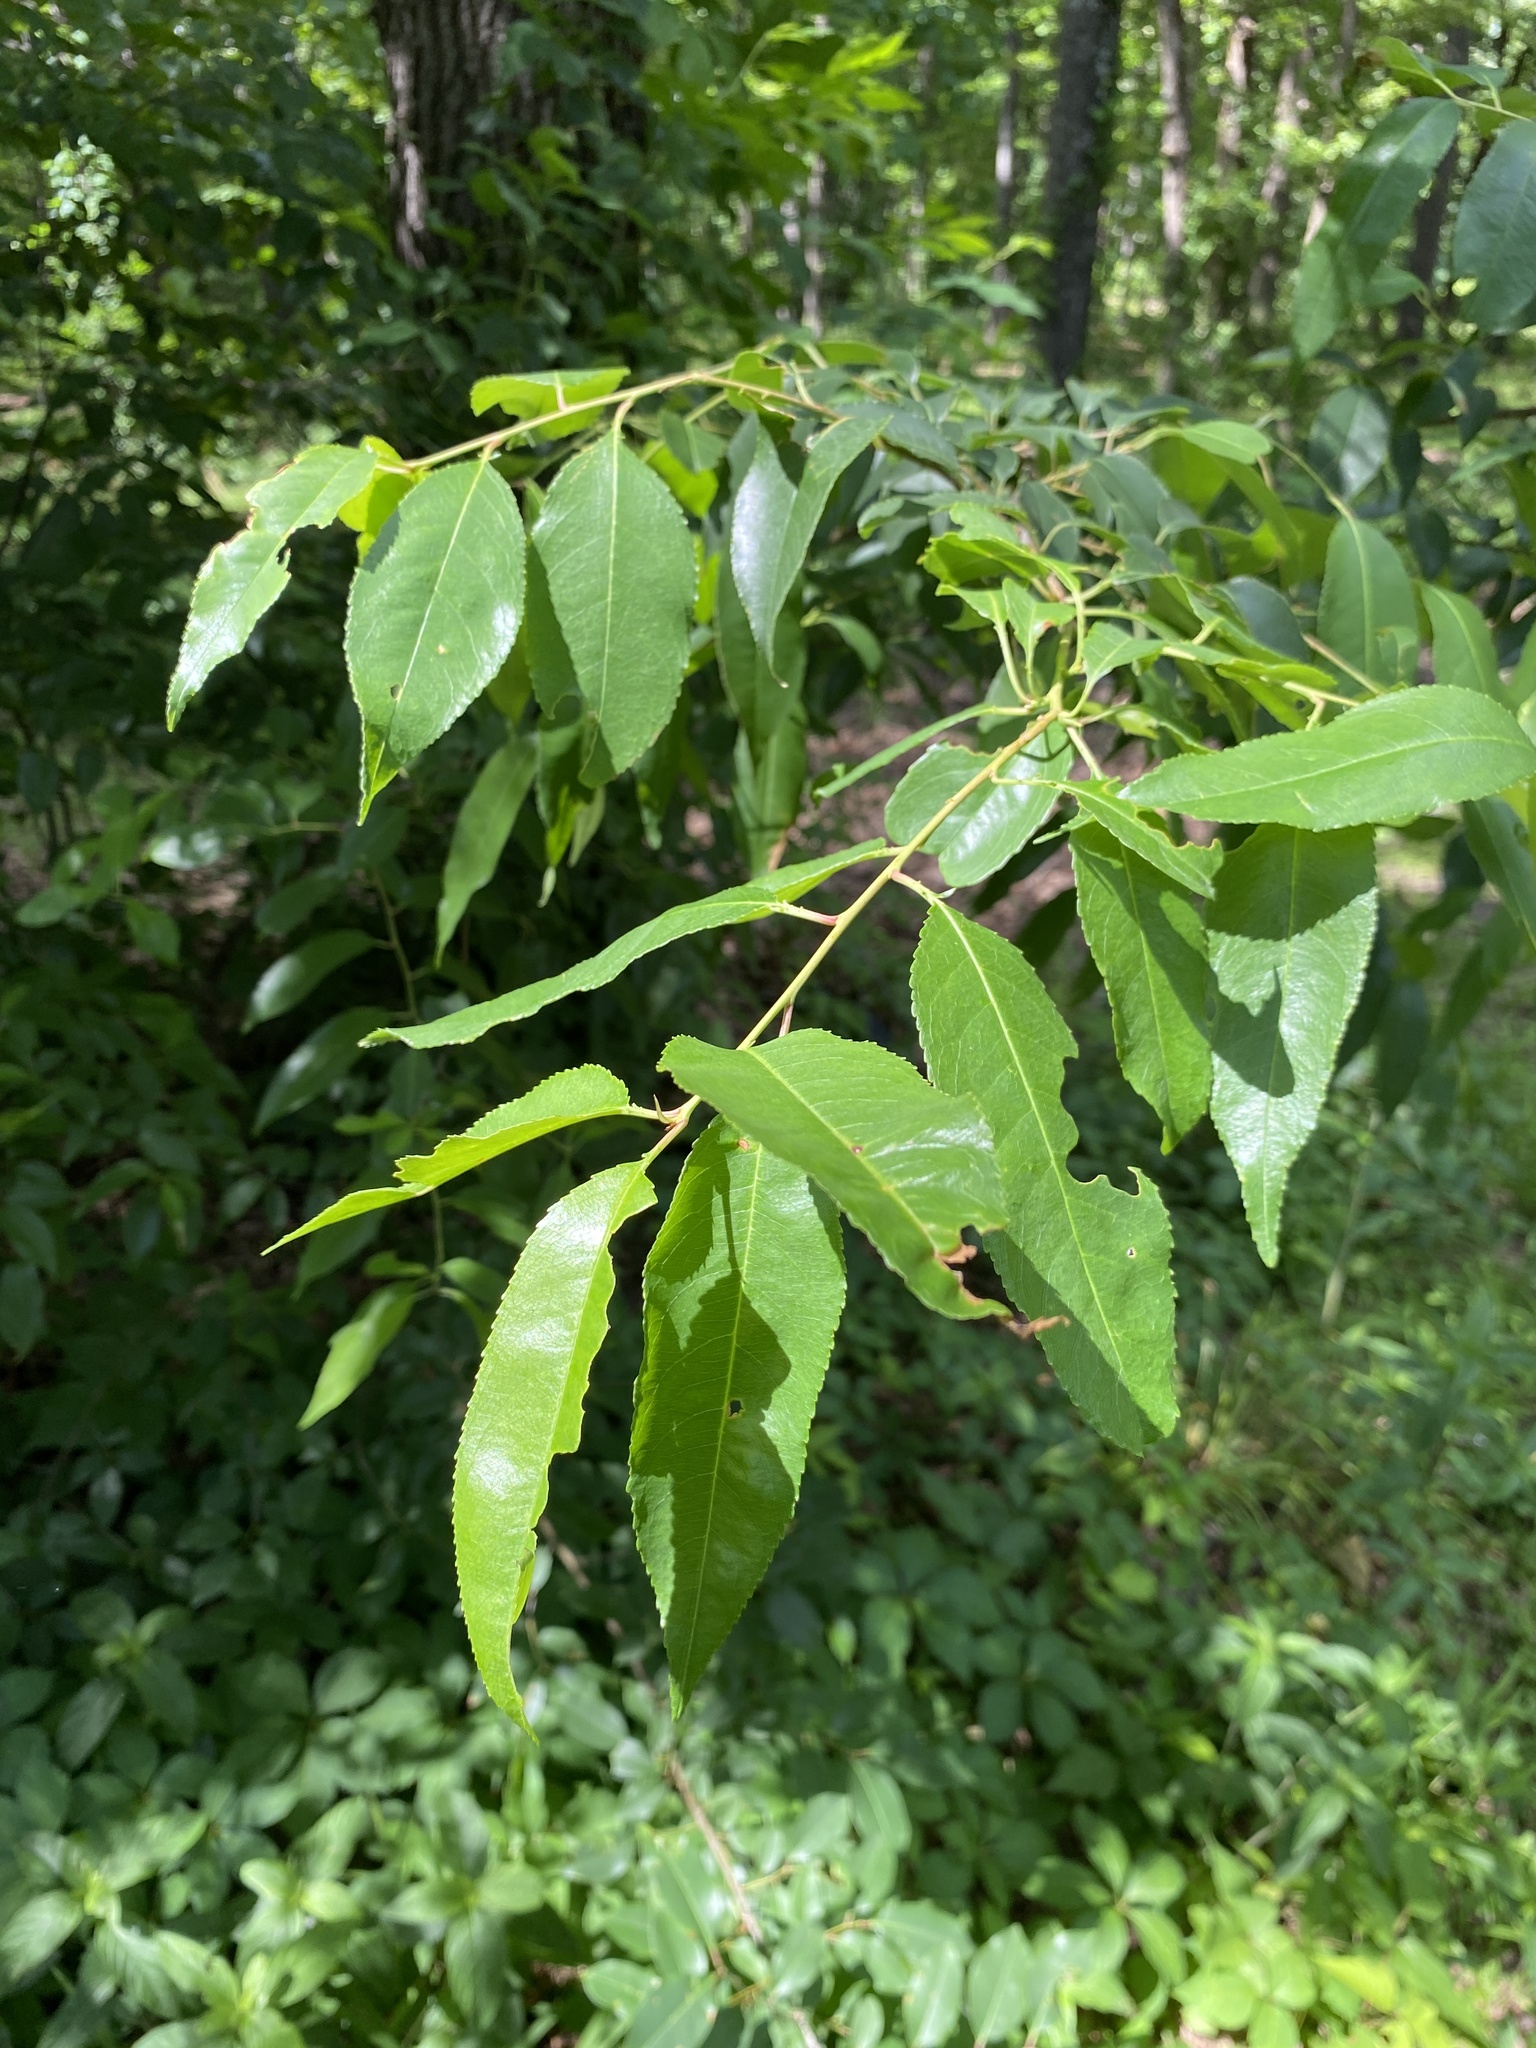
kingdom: Plantae
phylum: Tracheophyta
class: Magnoliopsida
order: Rosales
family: Rosaceae
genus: Prunus
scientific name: Prunus serotina
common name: Black cherry
